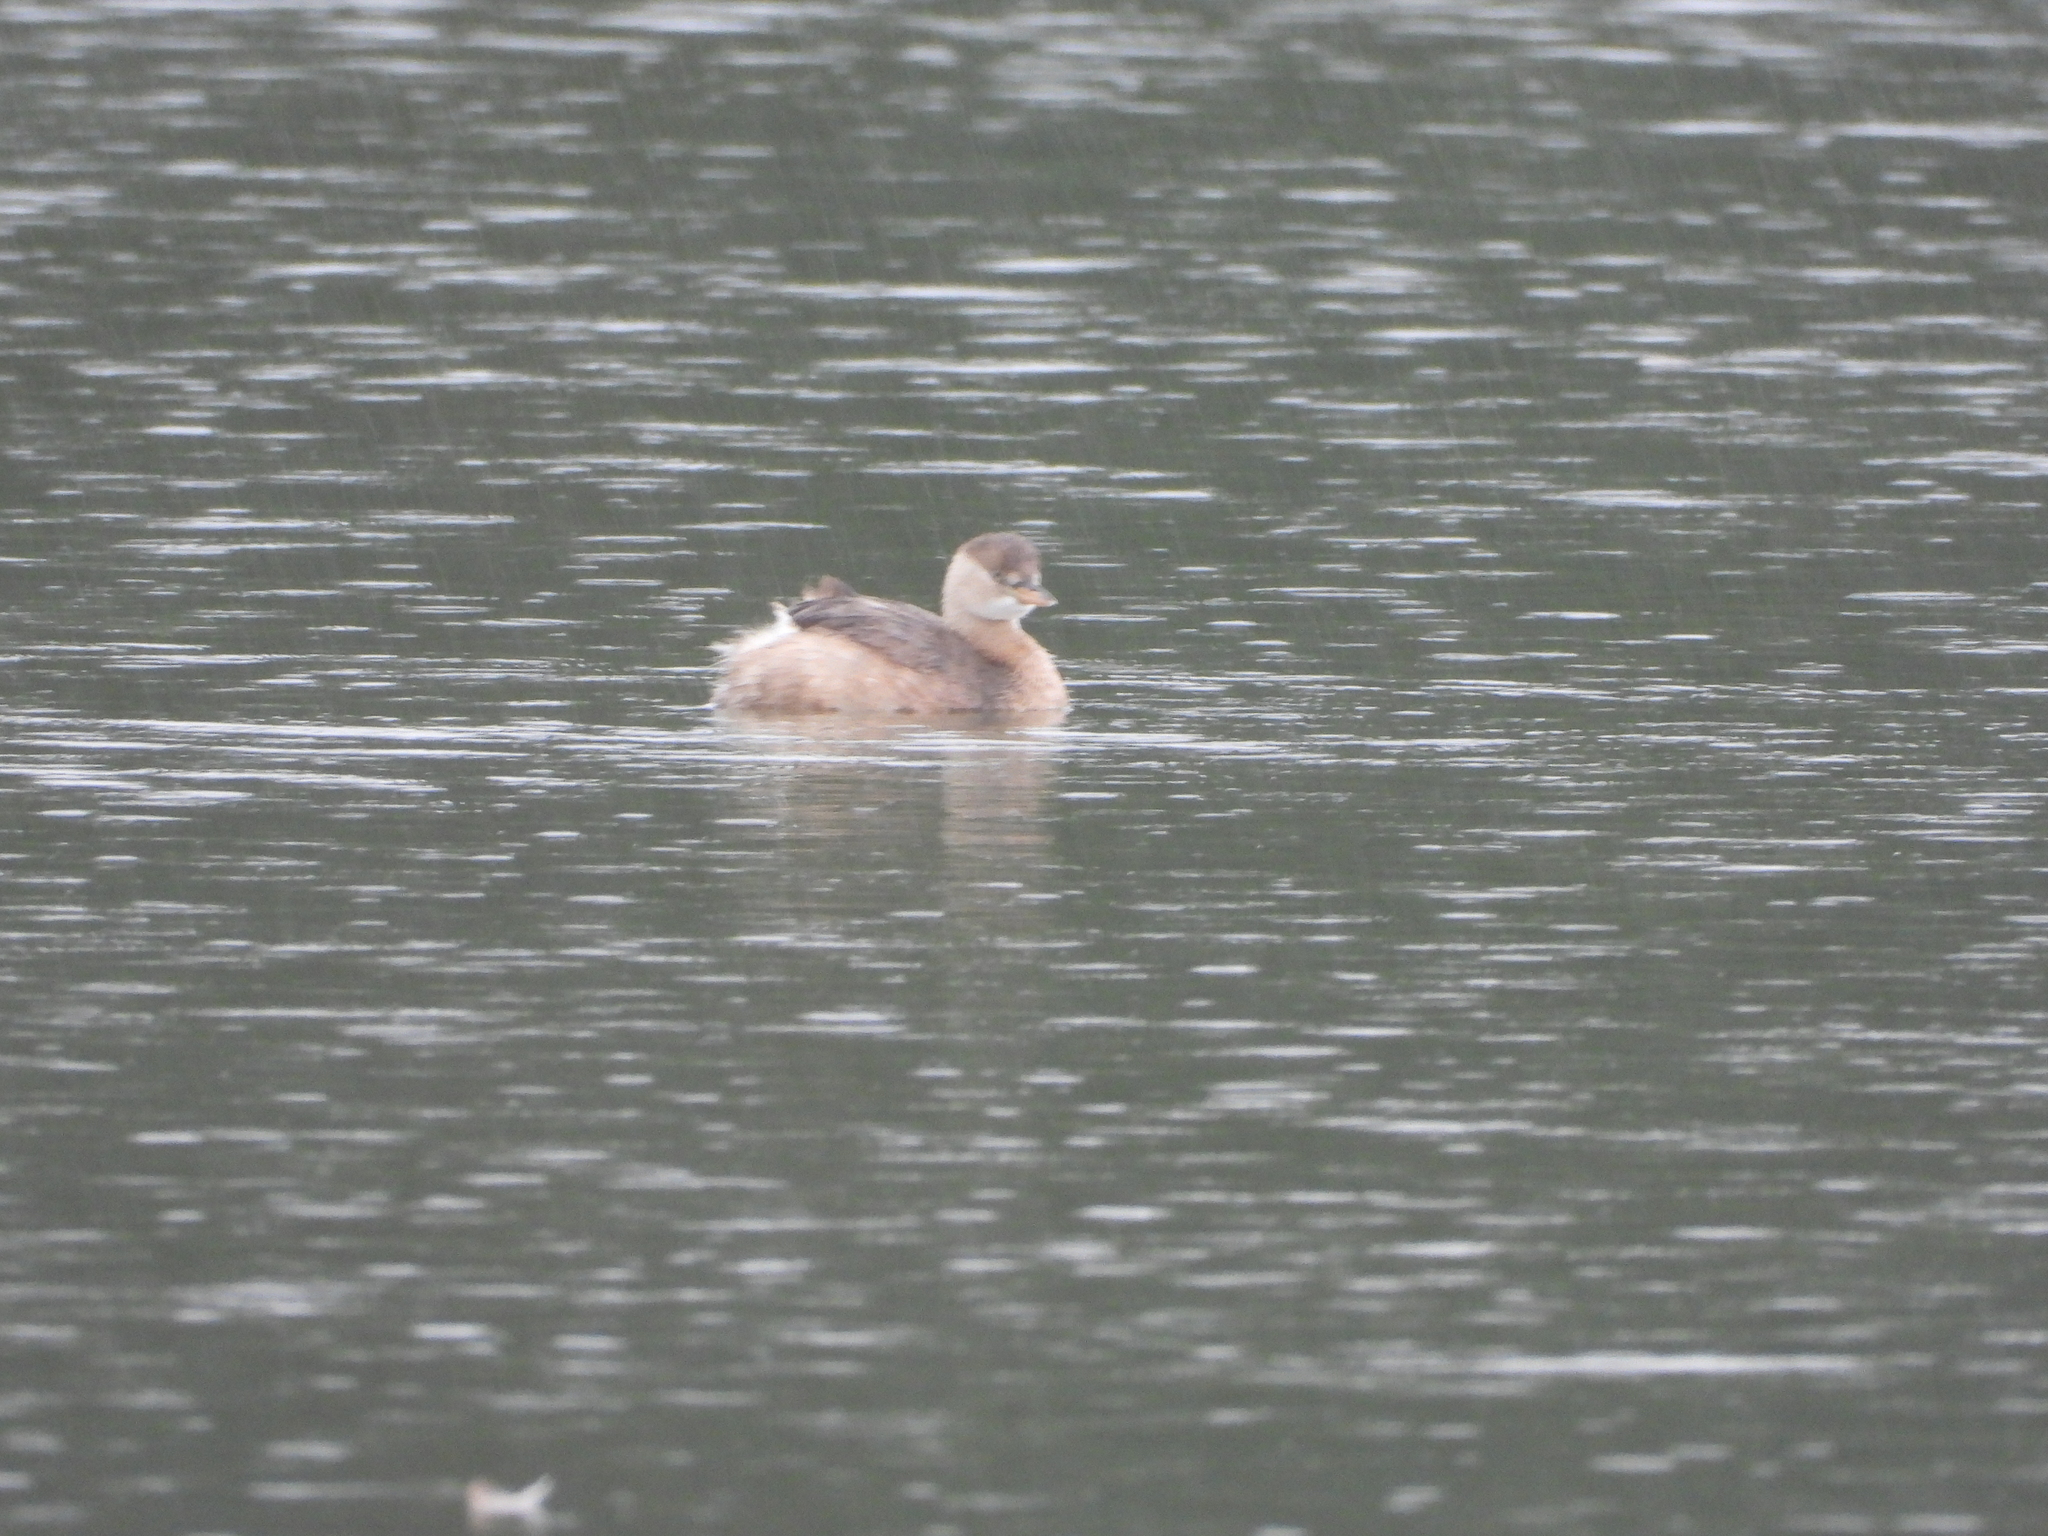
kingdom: Animalia
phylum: Chordata
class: Aves
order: Podicipediformes
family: Podicipedidae
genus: Tachybaptus
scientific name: Tachybaptus ruficollis
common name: Little grebe
